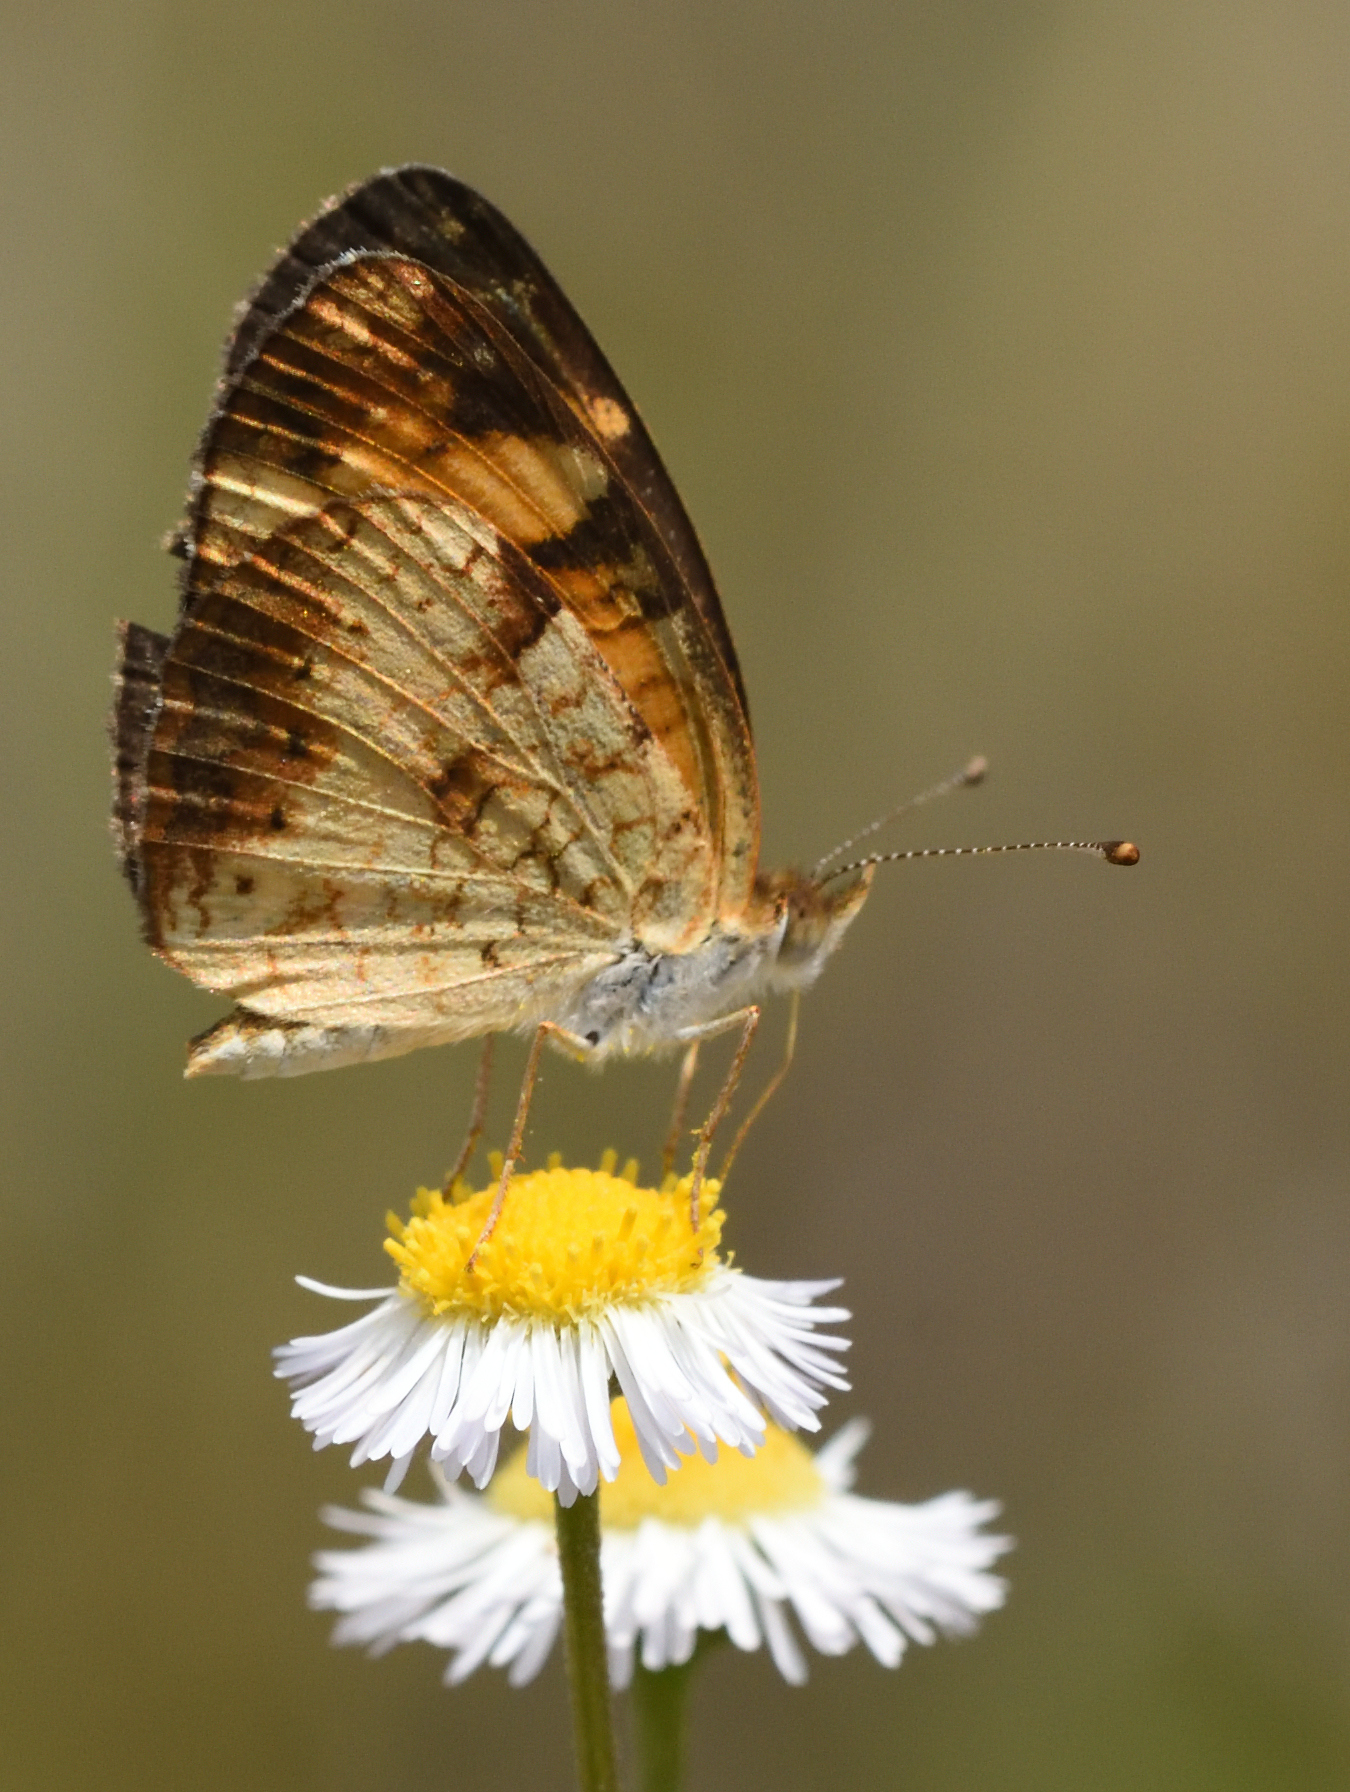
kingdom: Animalia
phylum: Arthropoda
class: Insecta
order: Lepidoptera
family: Nymphalidae
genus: Phyciodes
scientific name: Phyciodes tharos
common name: Pearl crescent
